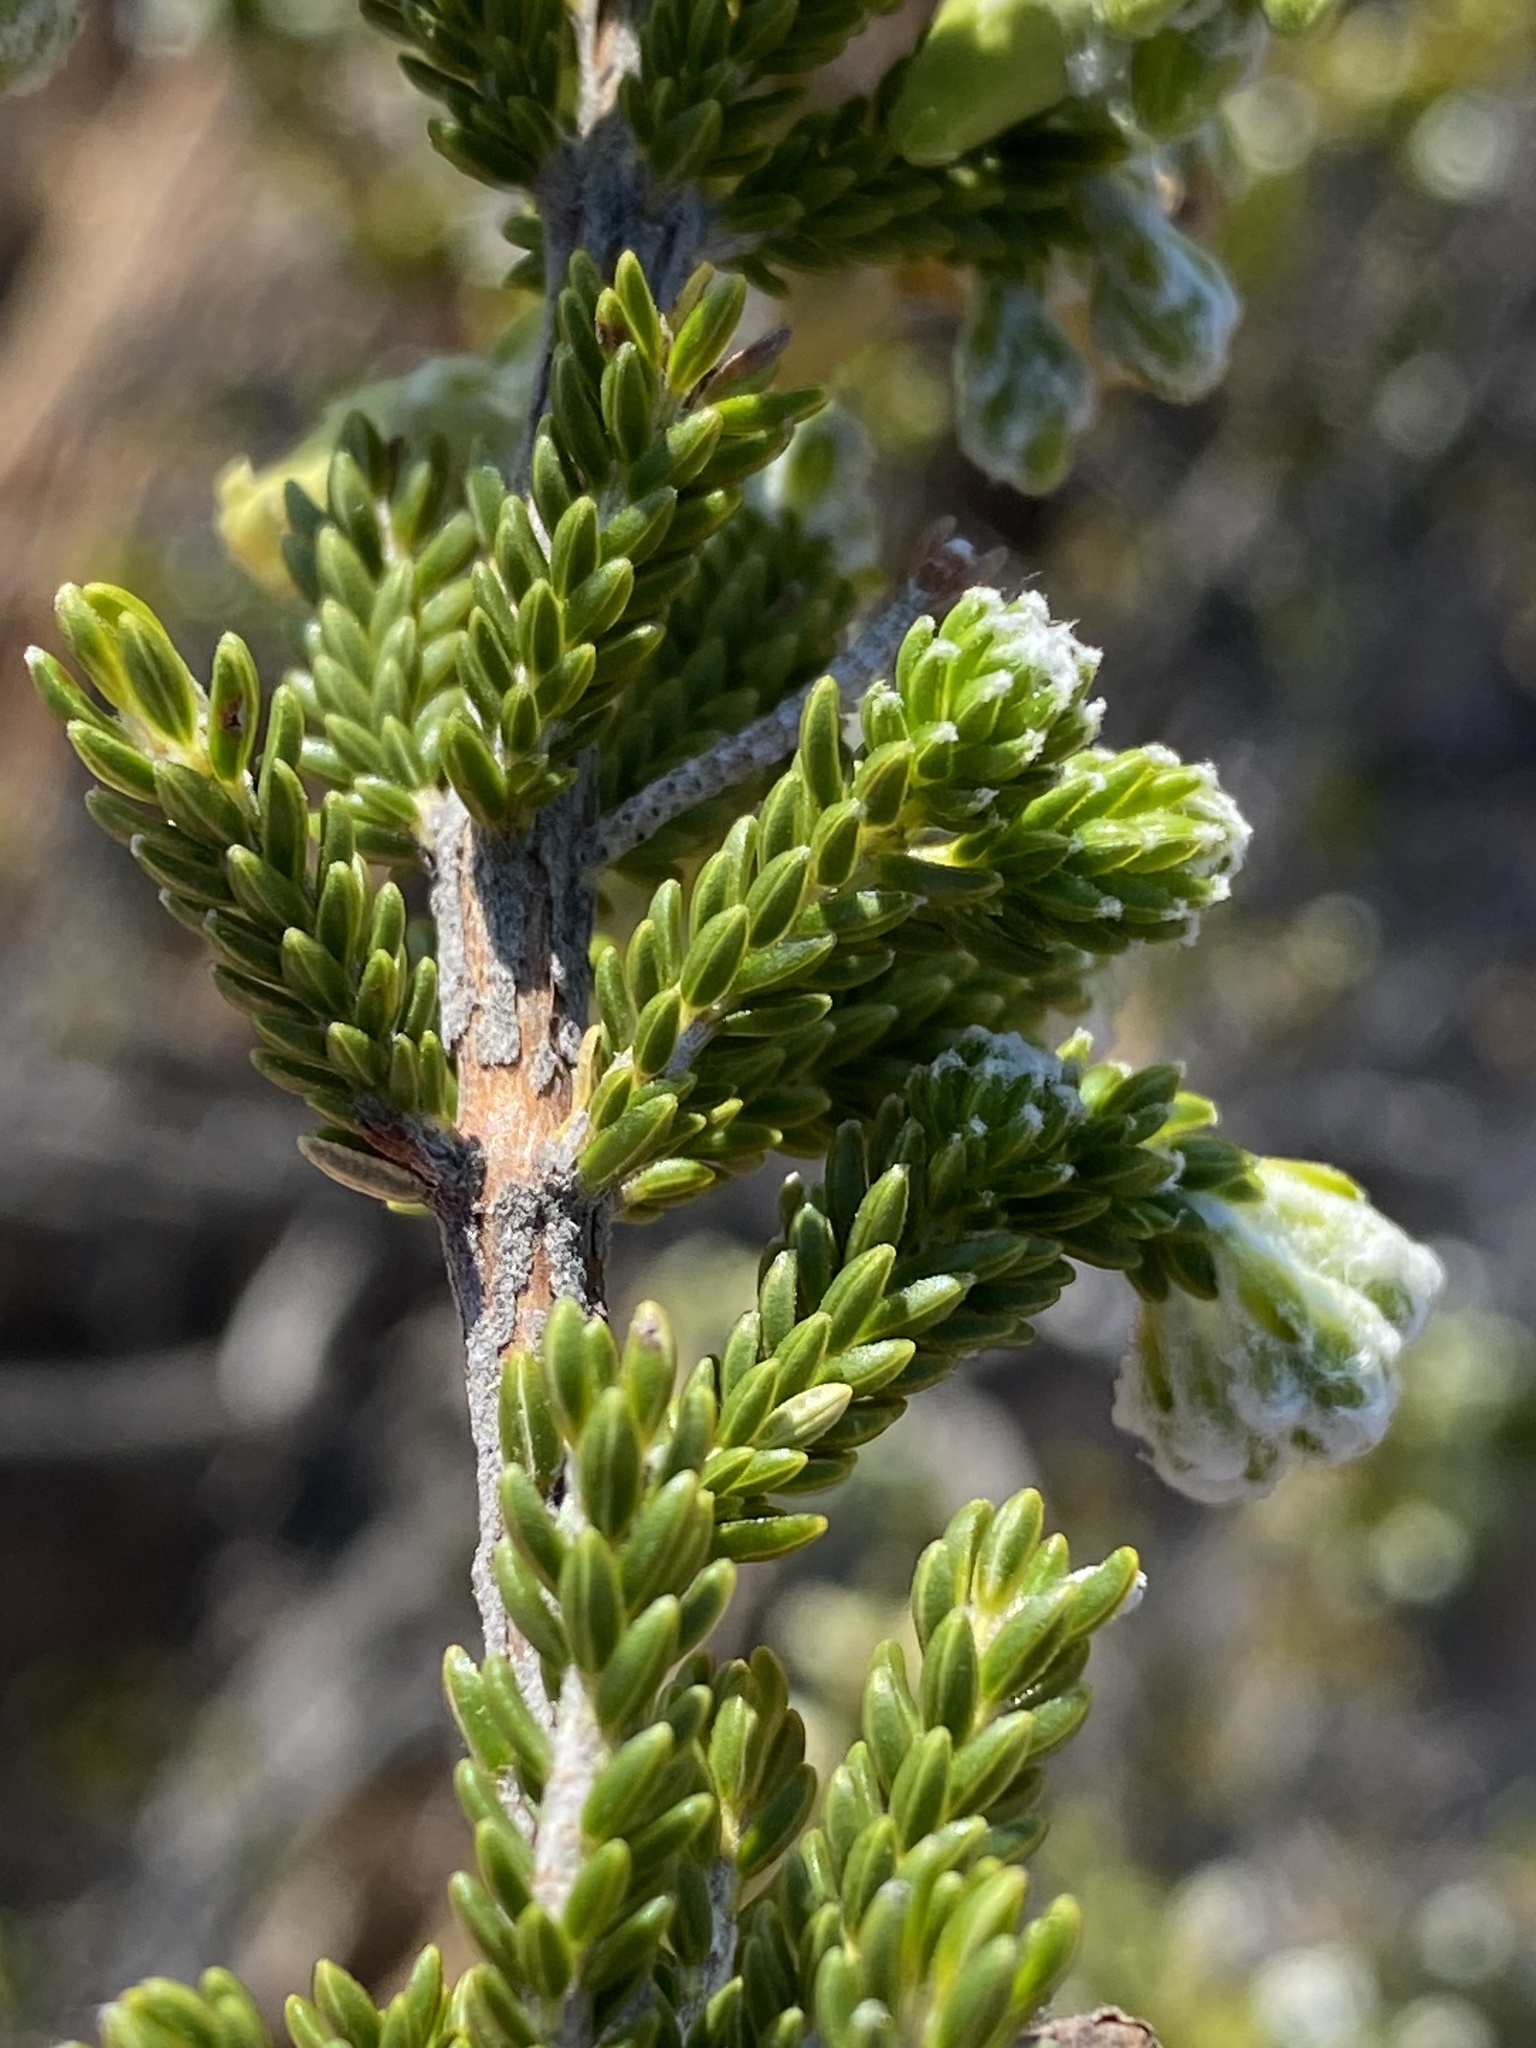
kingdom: Plantae
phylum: Tracheophyta
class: Magnoliopsida
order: Ericales
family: Ericaceae
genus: Erica
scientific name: Erica flocciflora
